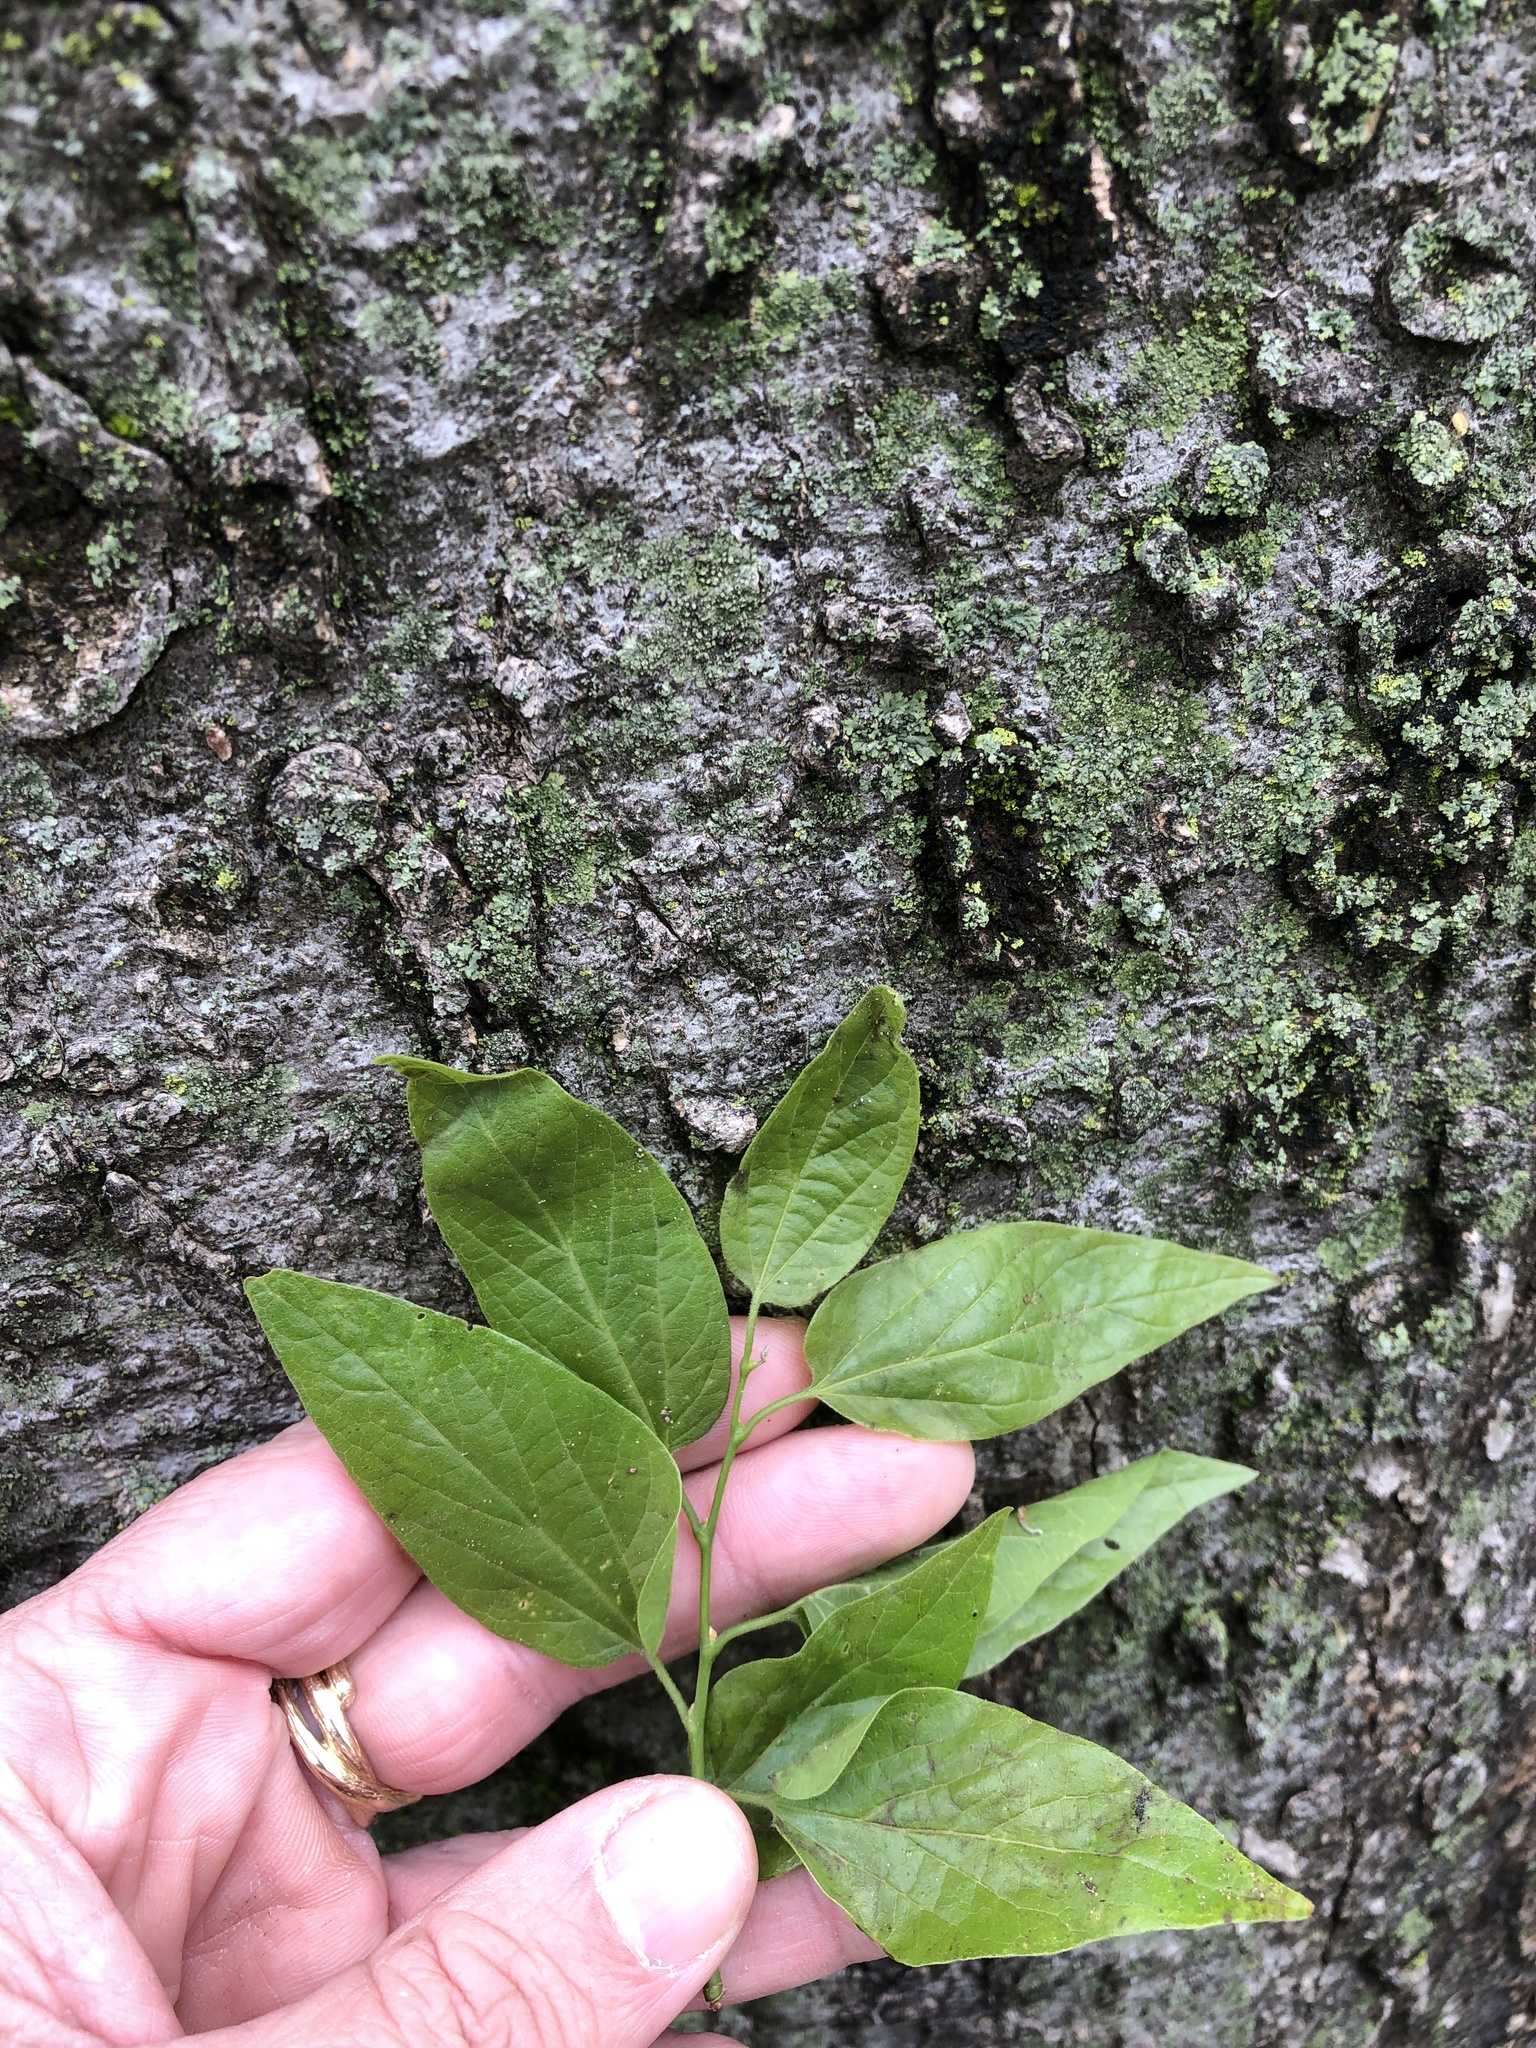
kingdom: Plantae
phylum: Tracheophyta
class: Magnoliopsida
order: Rosales
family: Cannabaceae
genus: Celtis
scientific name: Celtis laevigata
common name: Sugarberry
